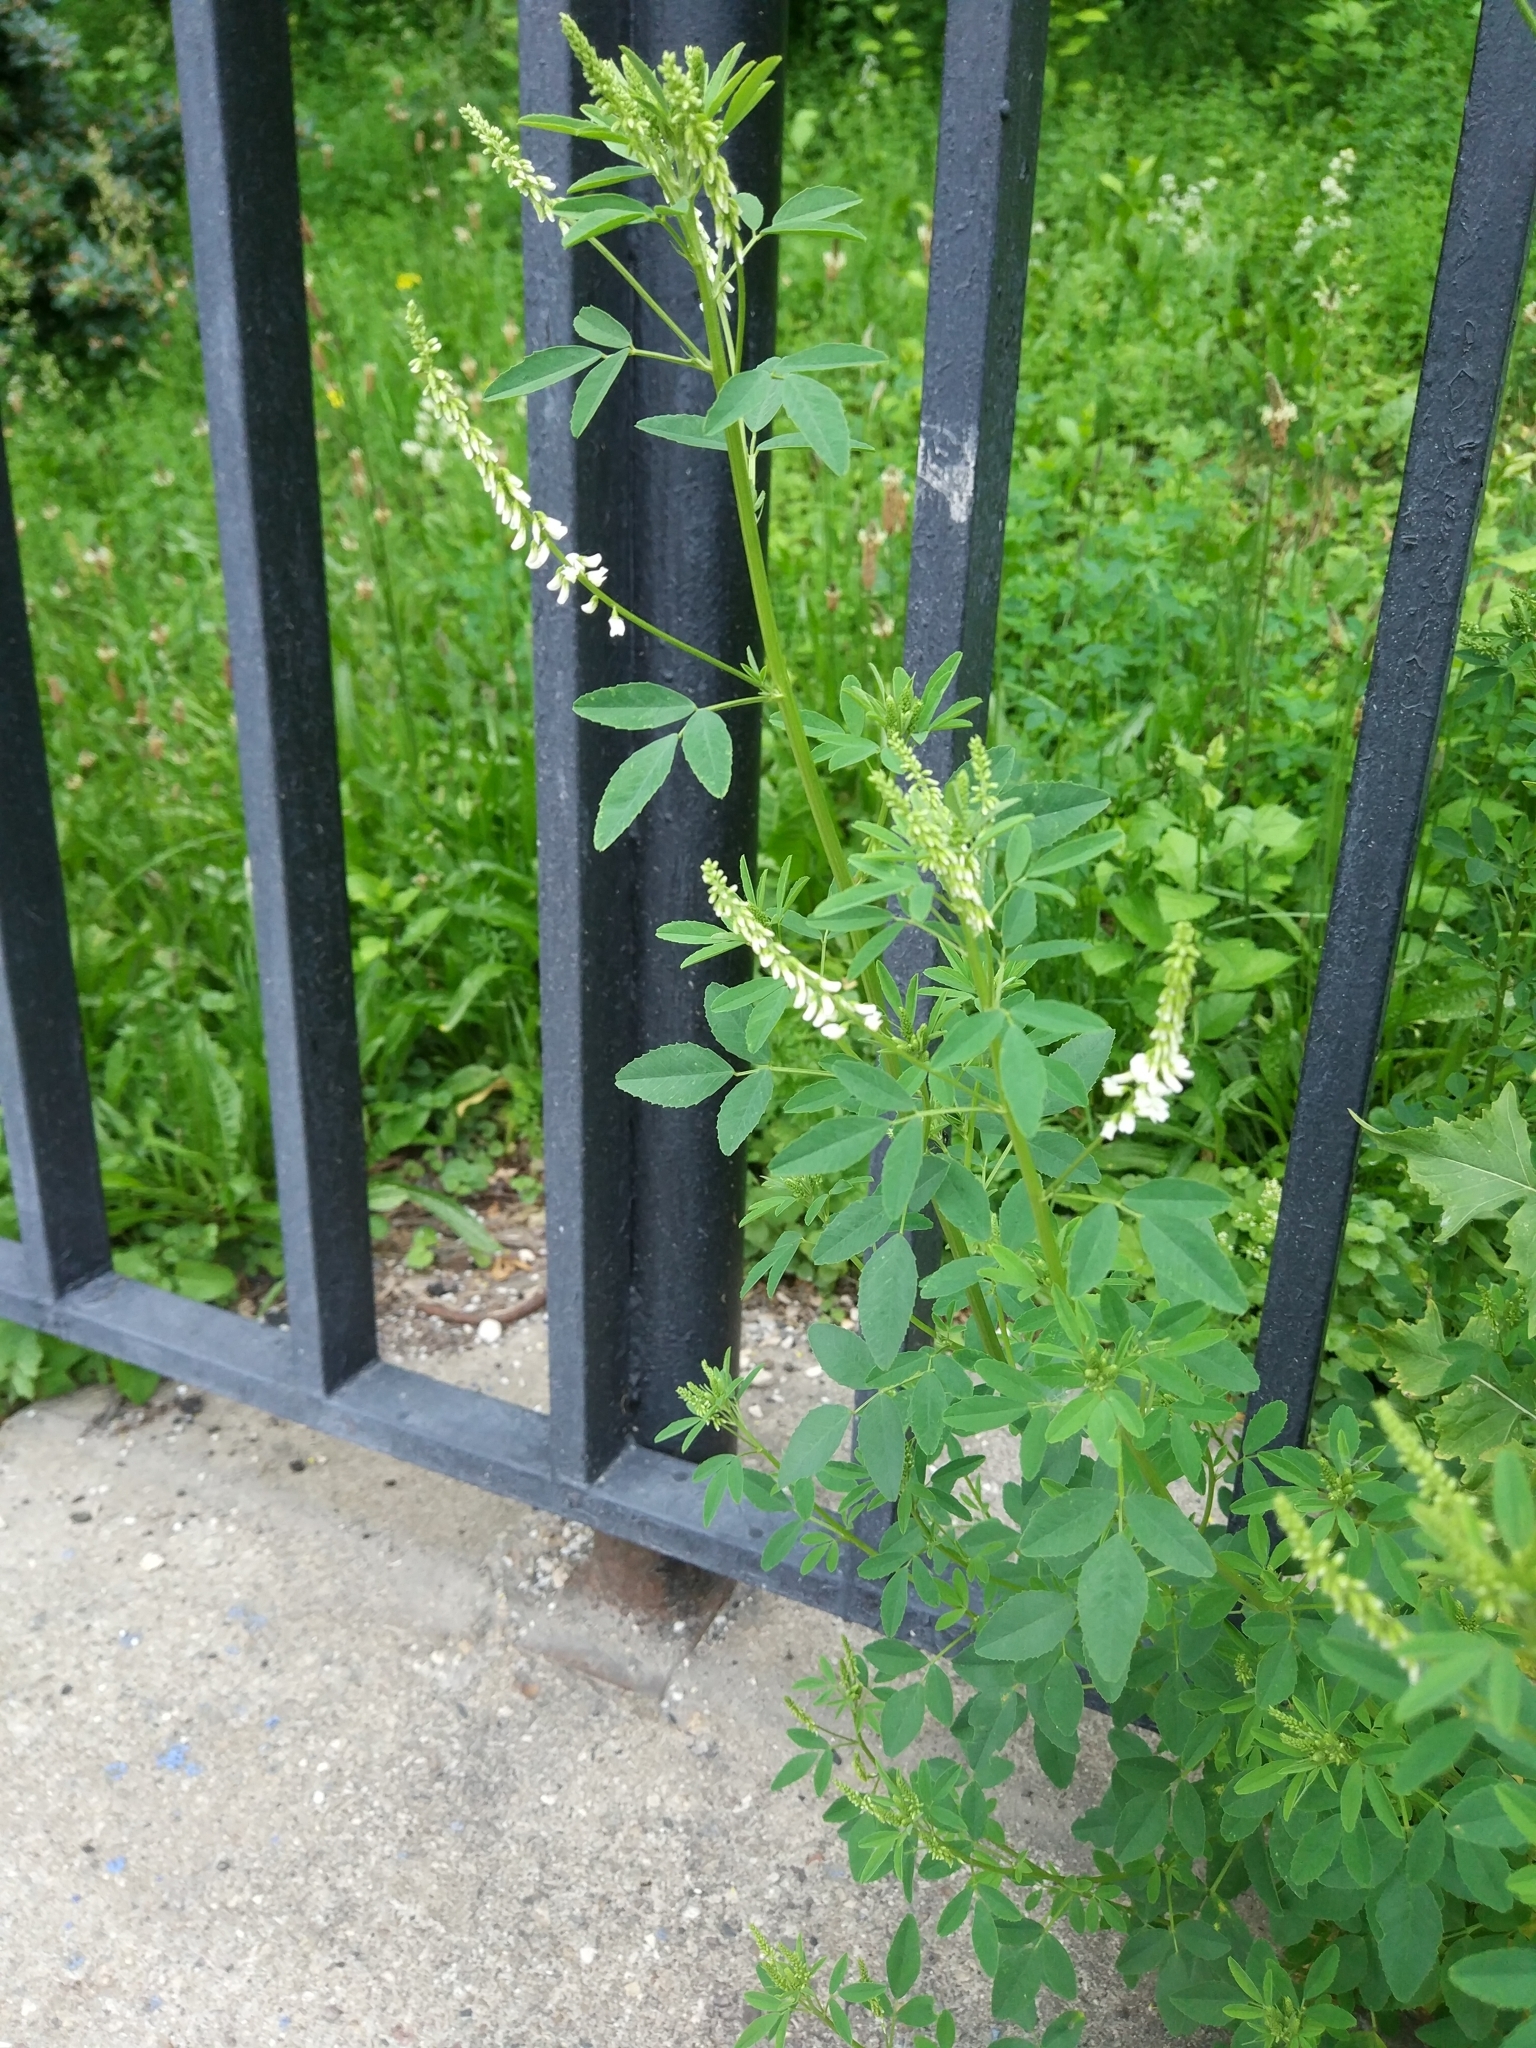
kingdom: Plantae
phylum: Tracheophyta
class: Magnoliopsida
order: Fabales
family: Fabaceae
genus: Melilotus
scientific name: Melilotus albus
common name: White melilot
